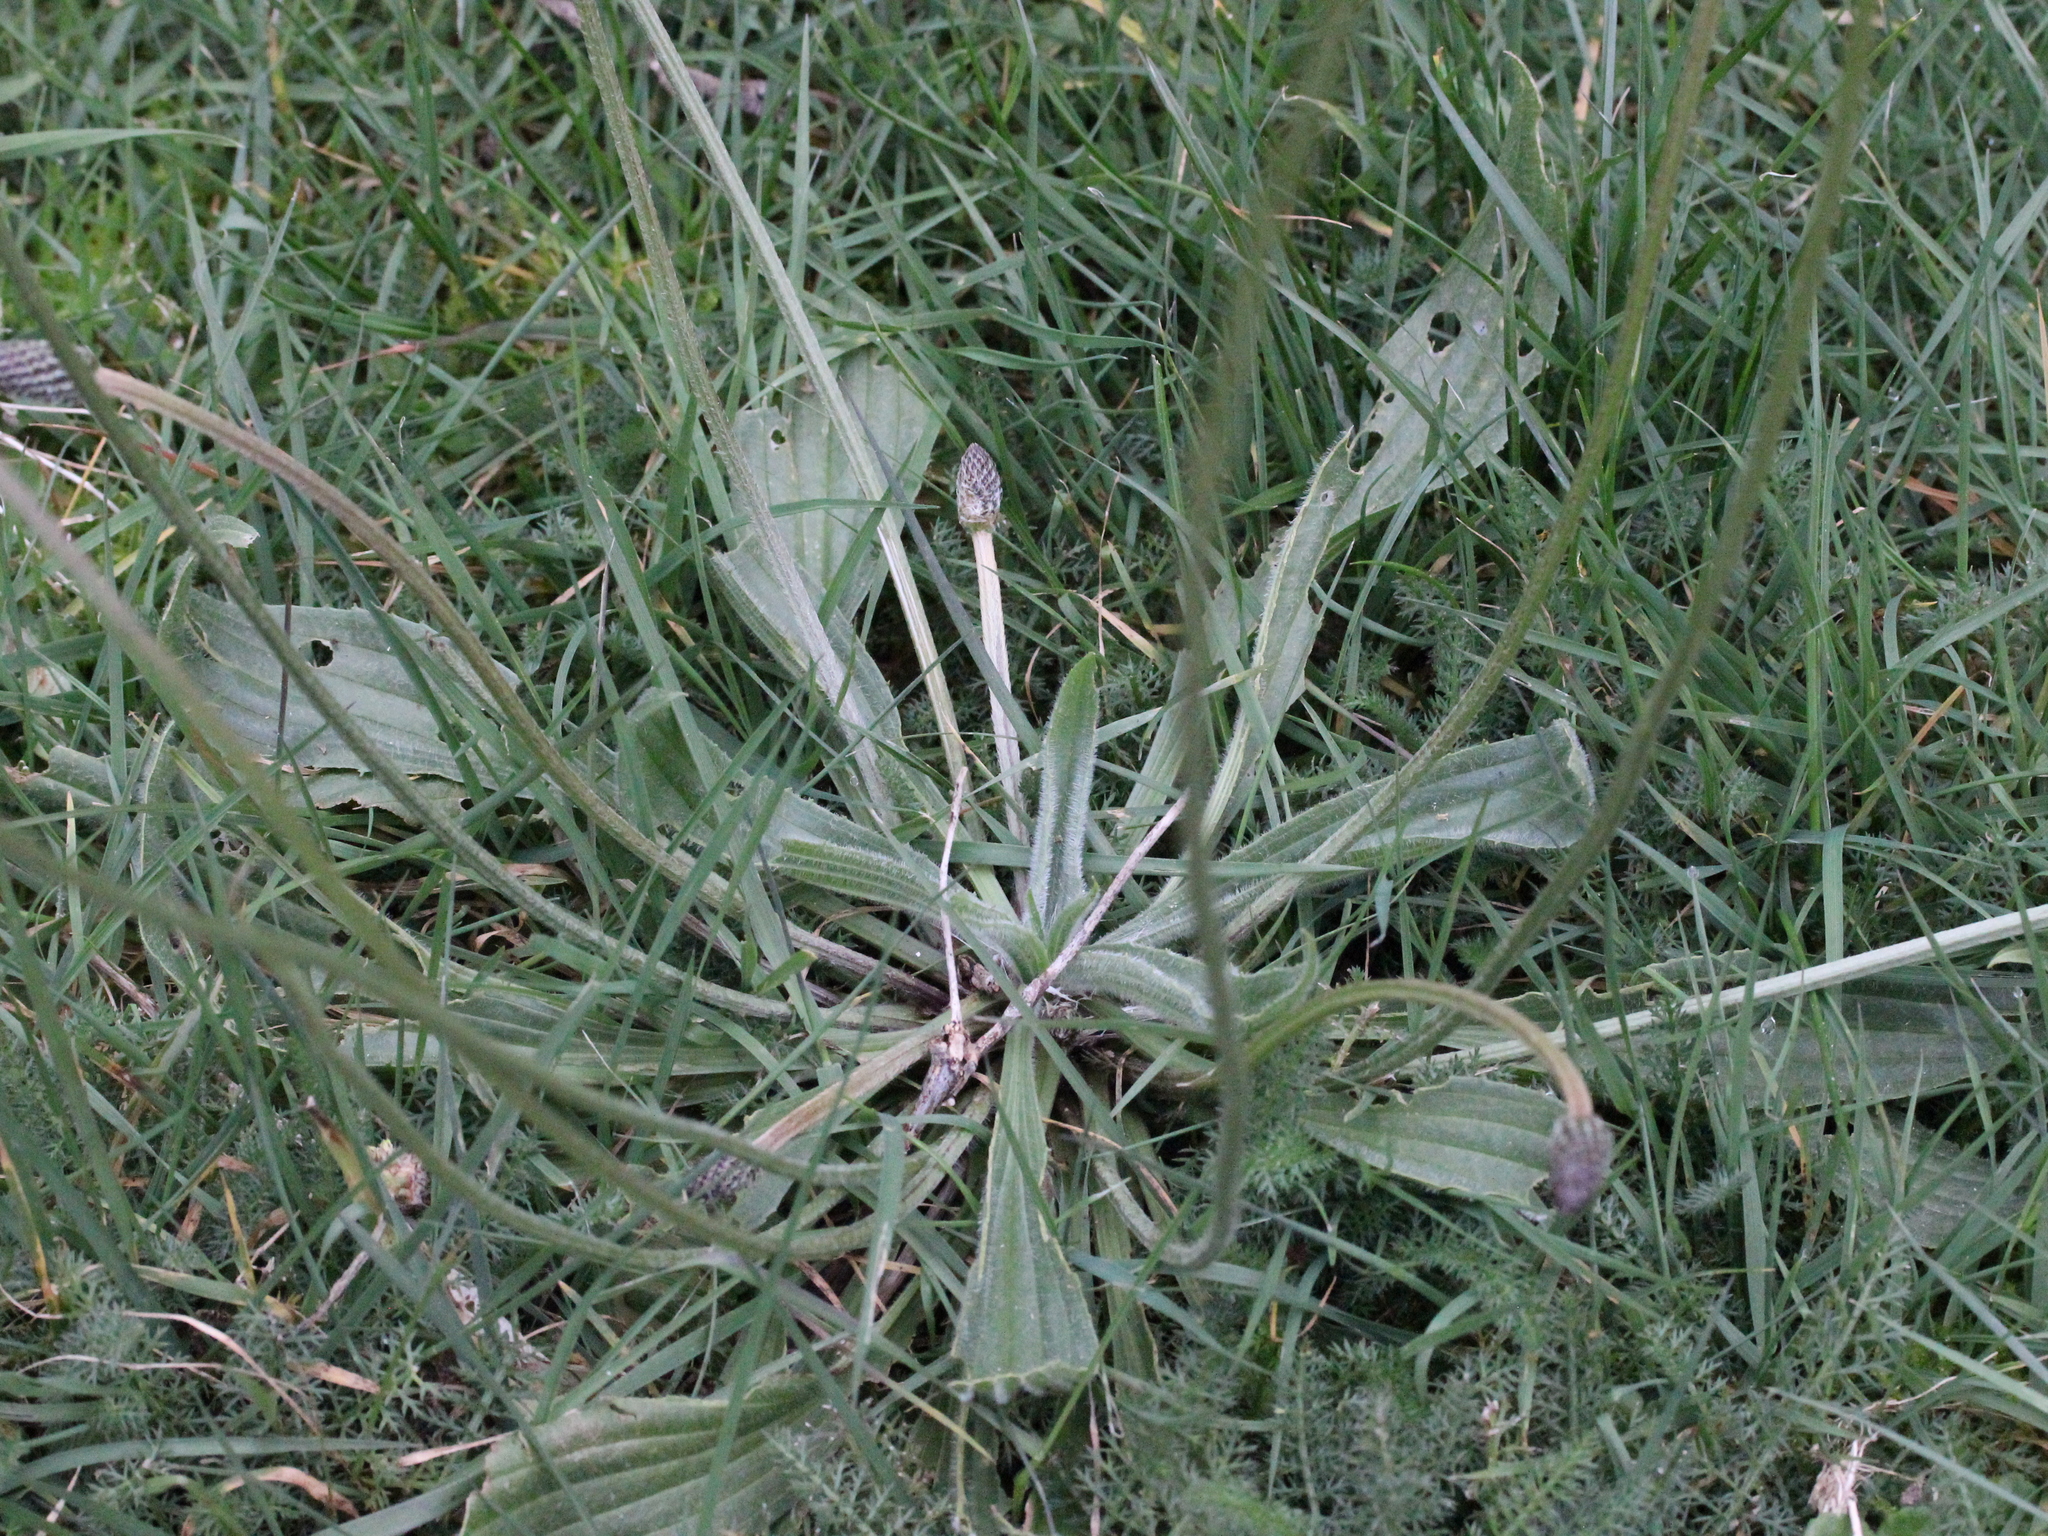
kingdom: Plantae
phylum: Tracheophyta
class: Magnoliopsida
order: Lamiales
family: Plantaginaceae
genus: Plantago
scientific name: Plantago lanceolata
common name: Ribwort plantain
